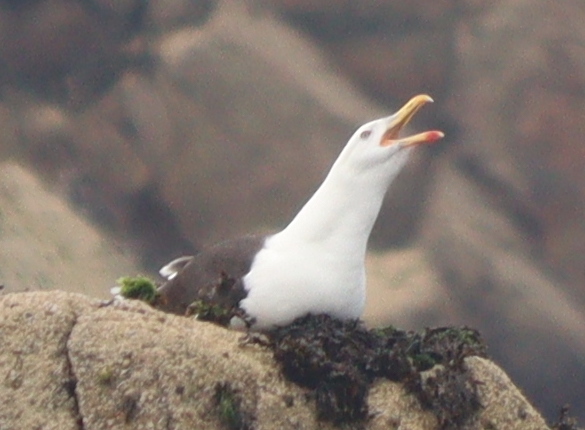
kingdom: Animalia
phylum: Chordata
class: Aves
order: Charadriiformes
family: Laridae
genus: Larus
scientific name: Larus marinus
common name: Great black-backed gull
